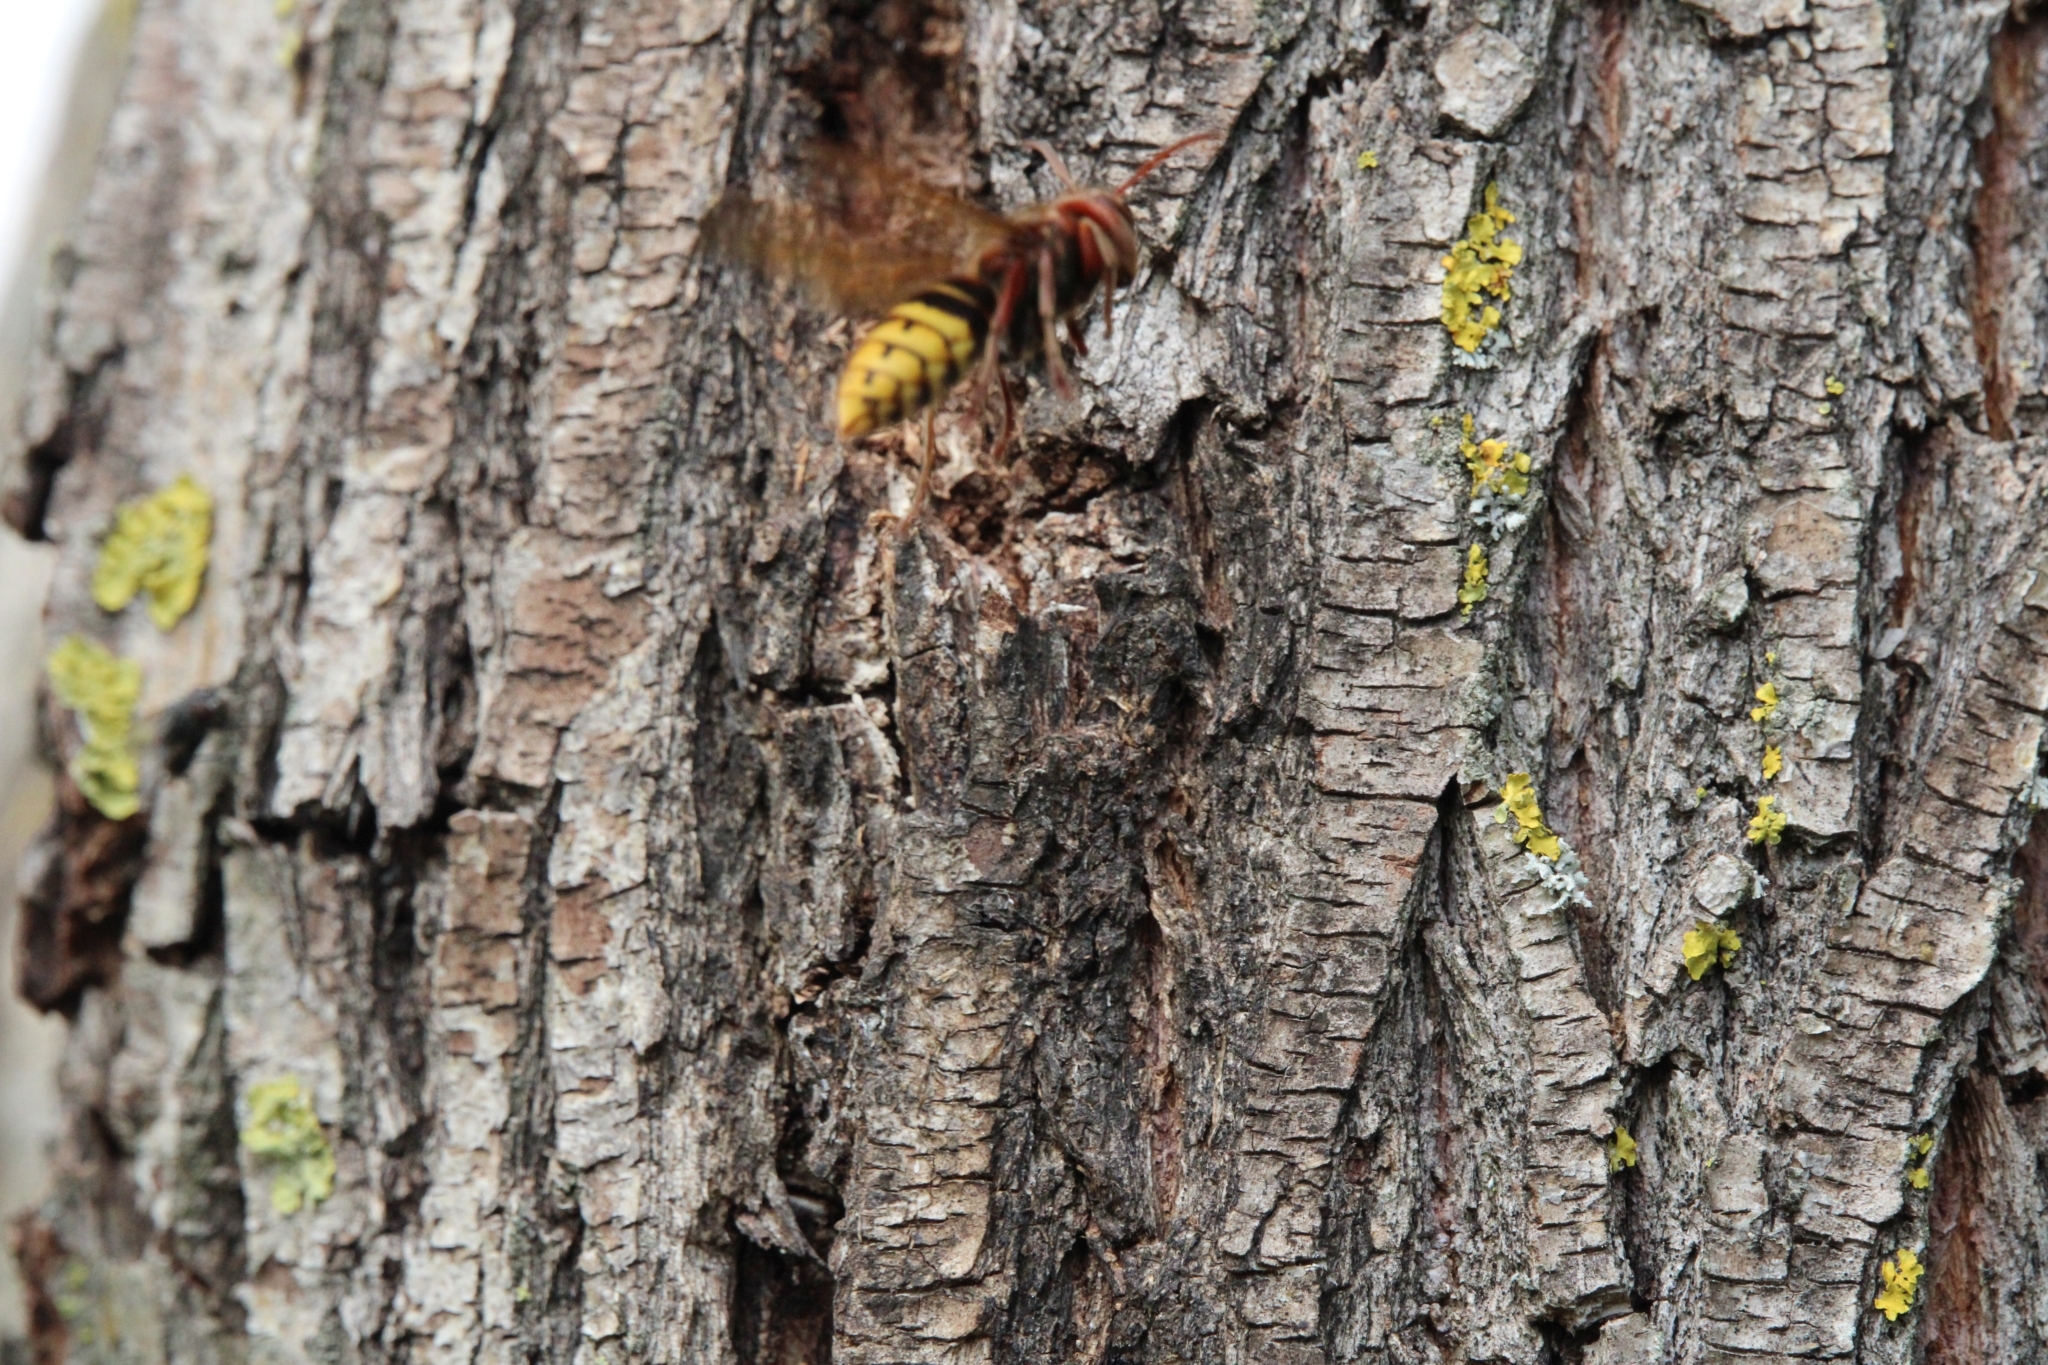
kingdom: Animalia
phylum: Arthropoda
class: Insecta
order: Hymenoptera
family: Vespidae
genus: Vespa
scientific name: Vespa crabro
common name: Hornet
